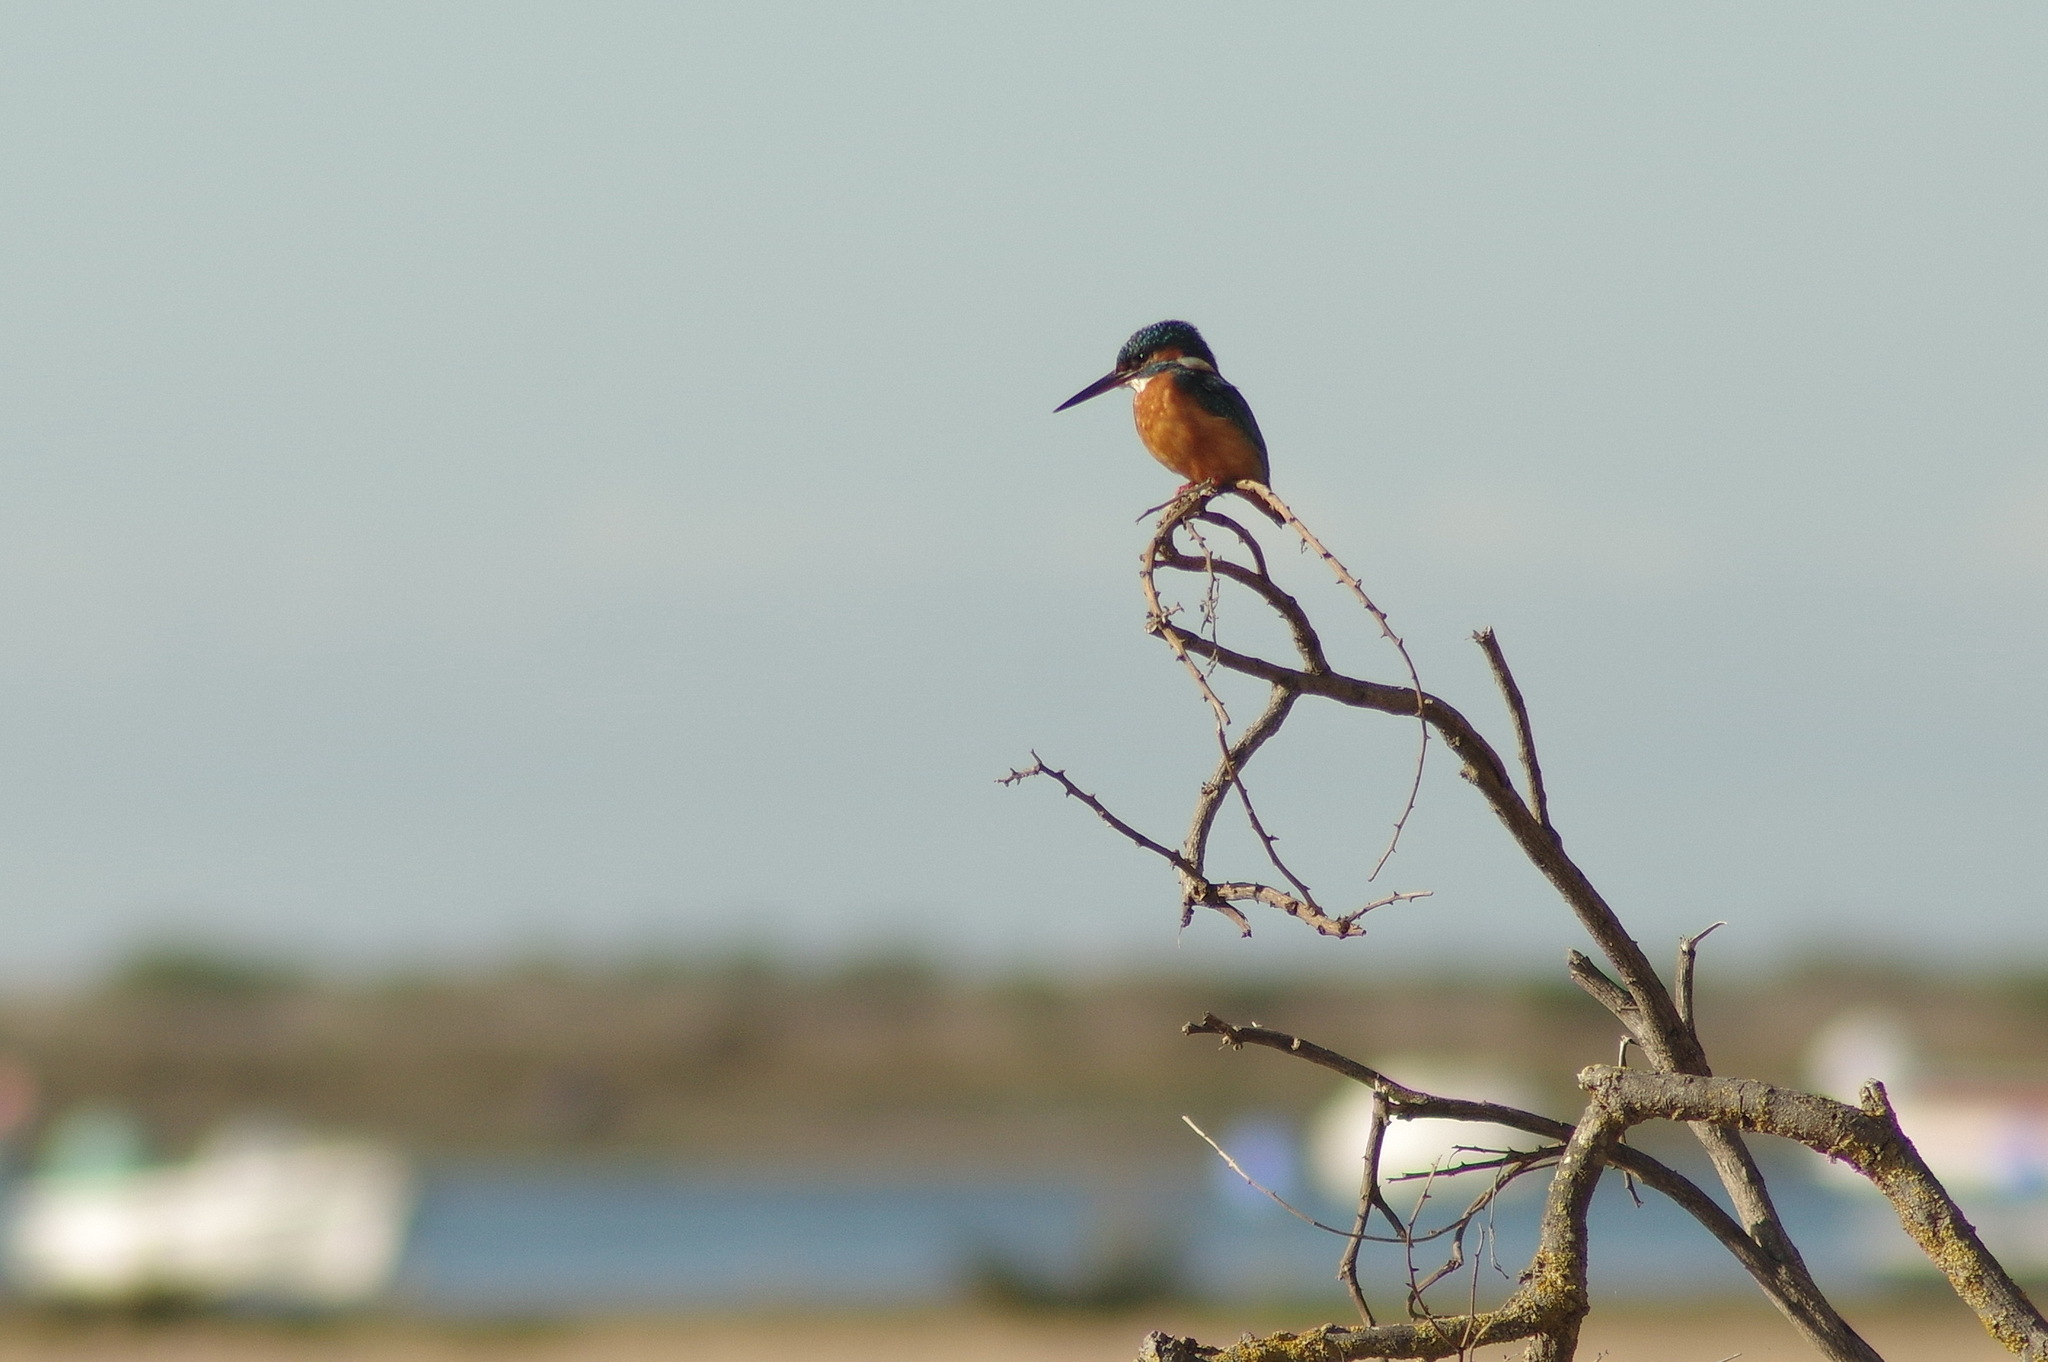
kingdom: Animalia
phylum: Chordata
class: Aves
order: Coraciiformes
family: Alcedinidae
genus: Alcedo
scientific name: Alcedo atthis
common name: Common kingfisher
